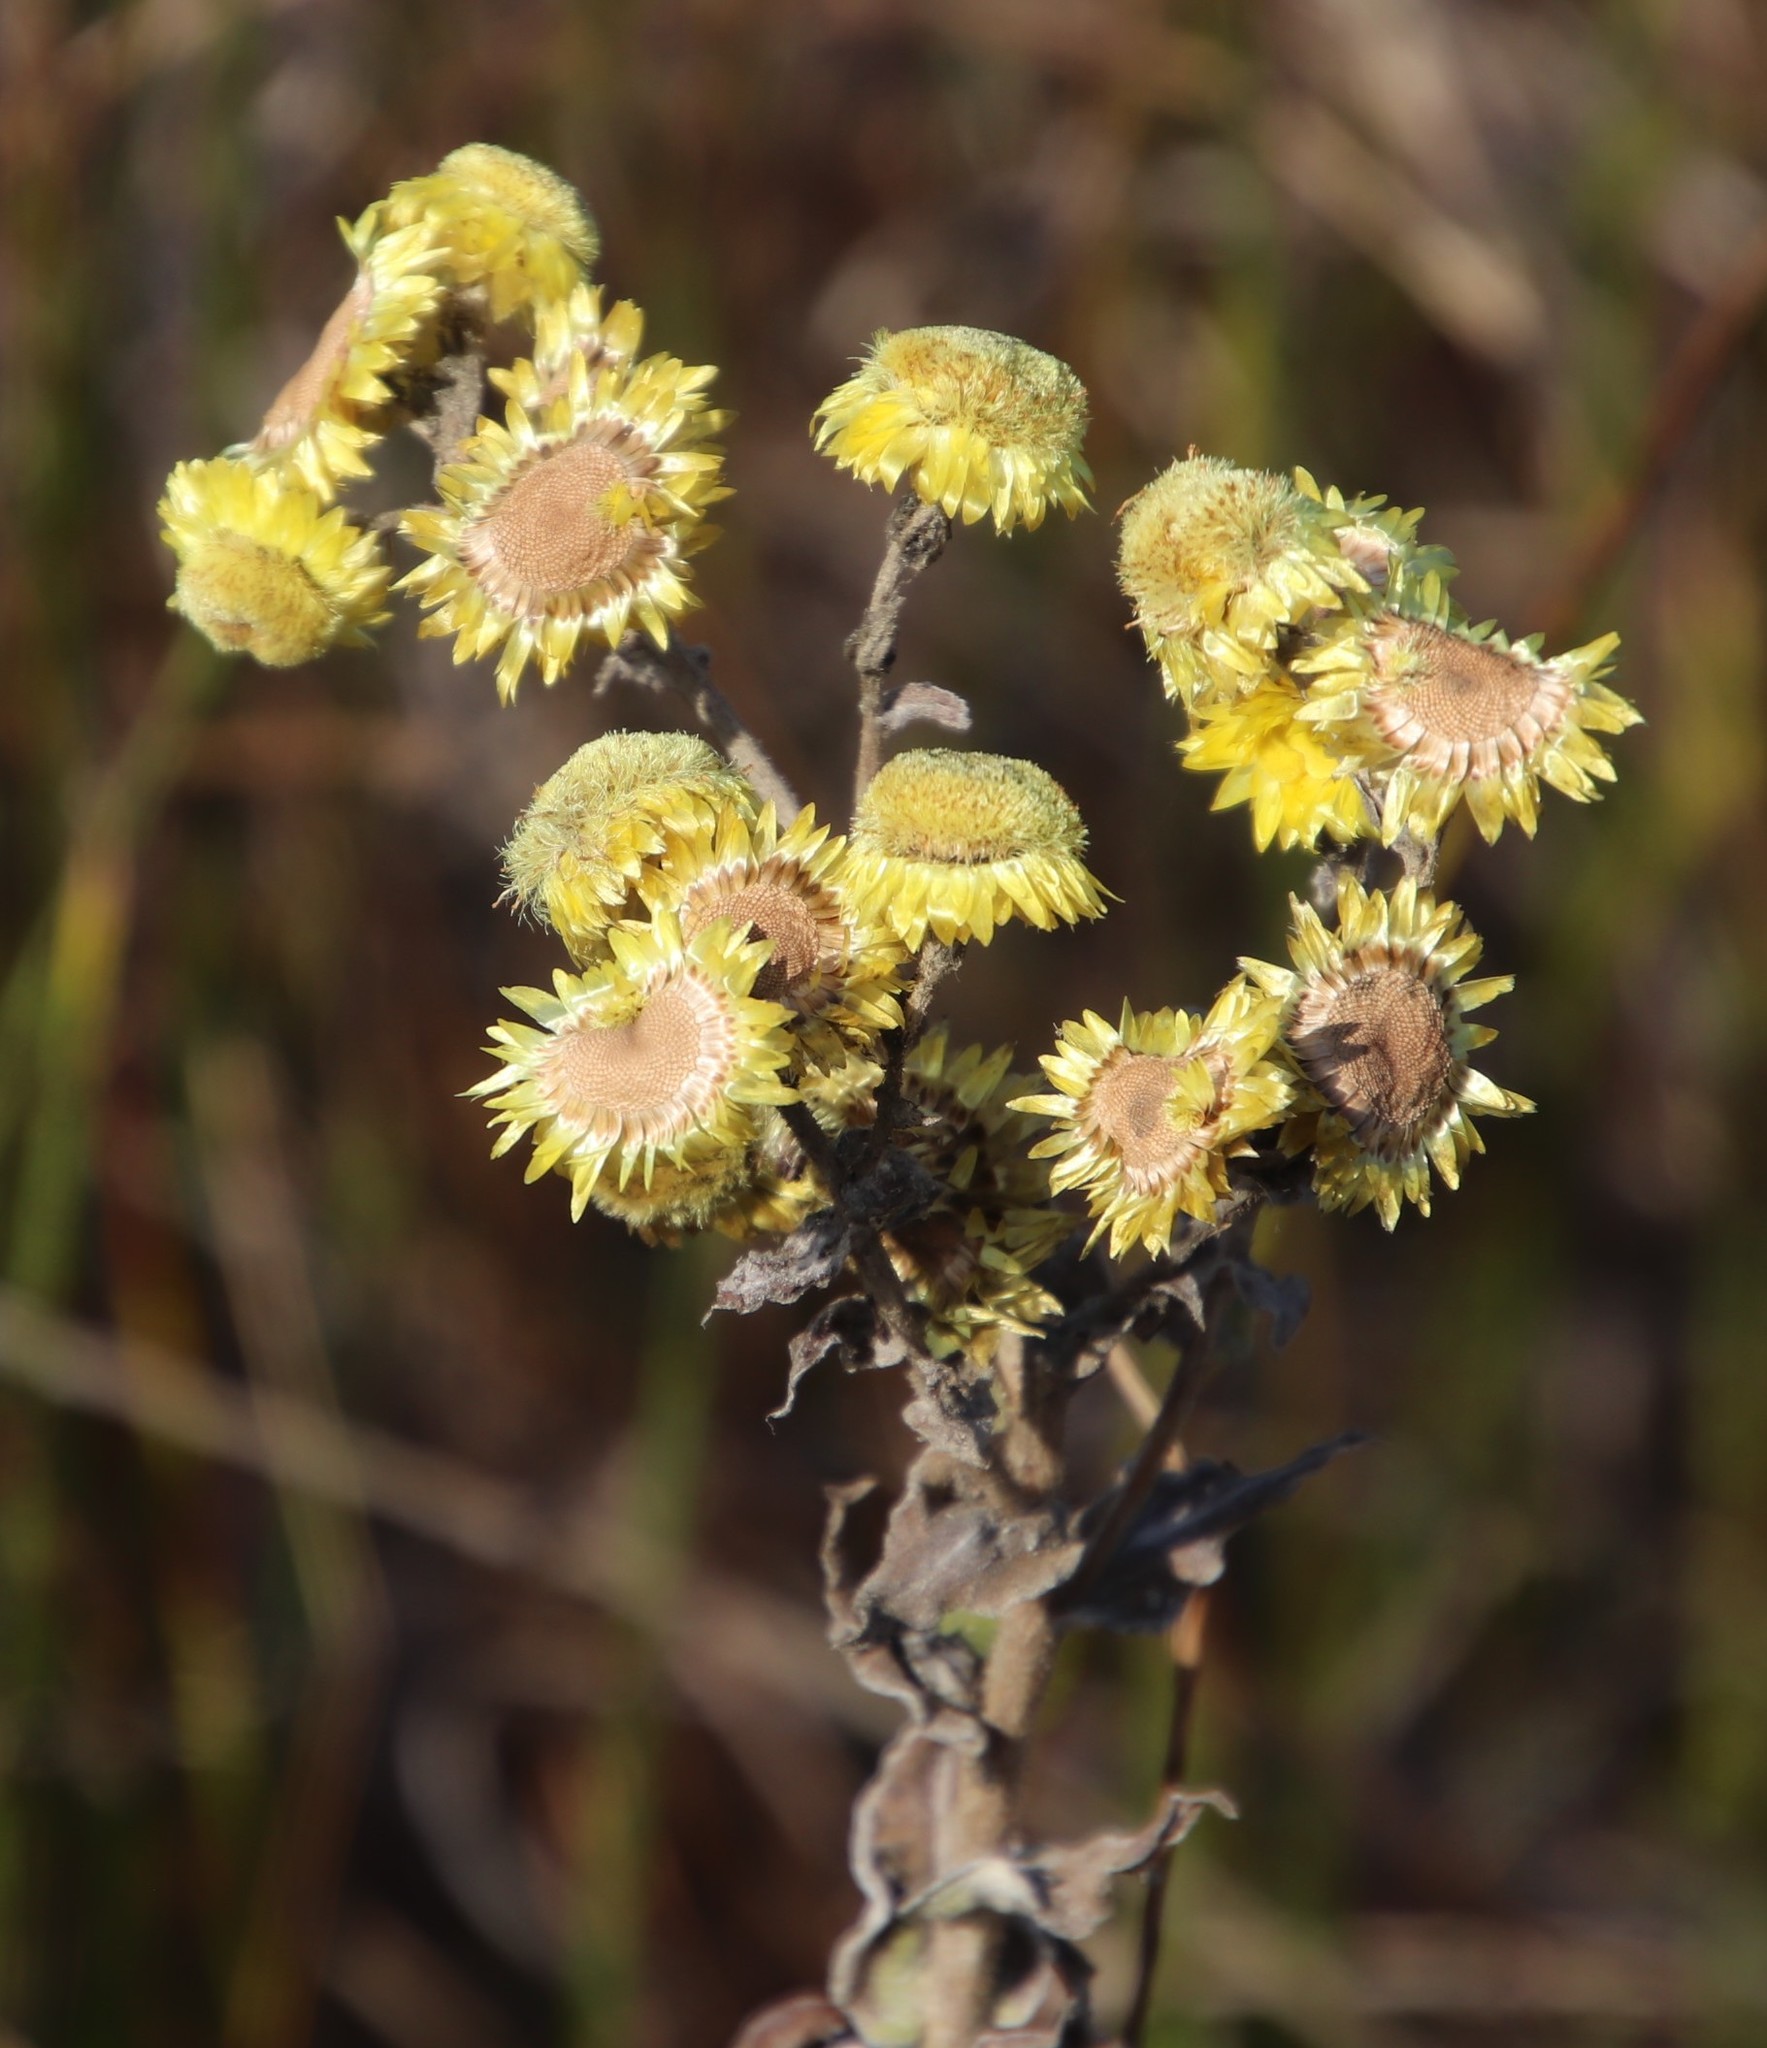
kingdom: Plantae
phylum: Tracheophyta
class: Magnoliopsida
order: Asterales
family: Asteraceae
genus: Helichrysum
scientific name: Helichrysum foetidum
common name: Stinking everlasting
